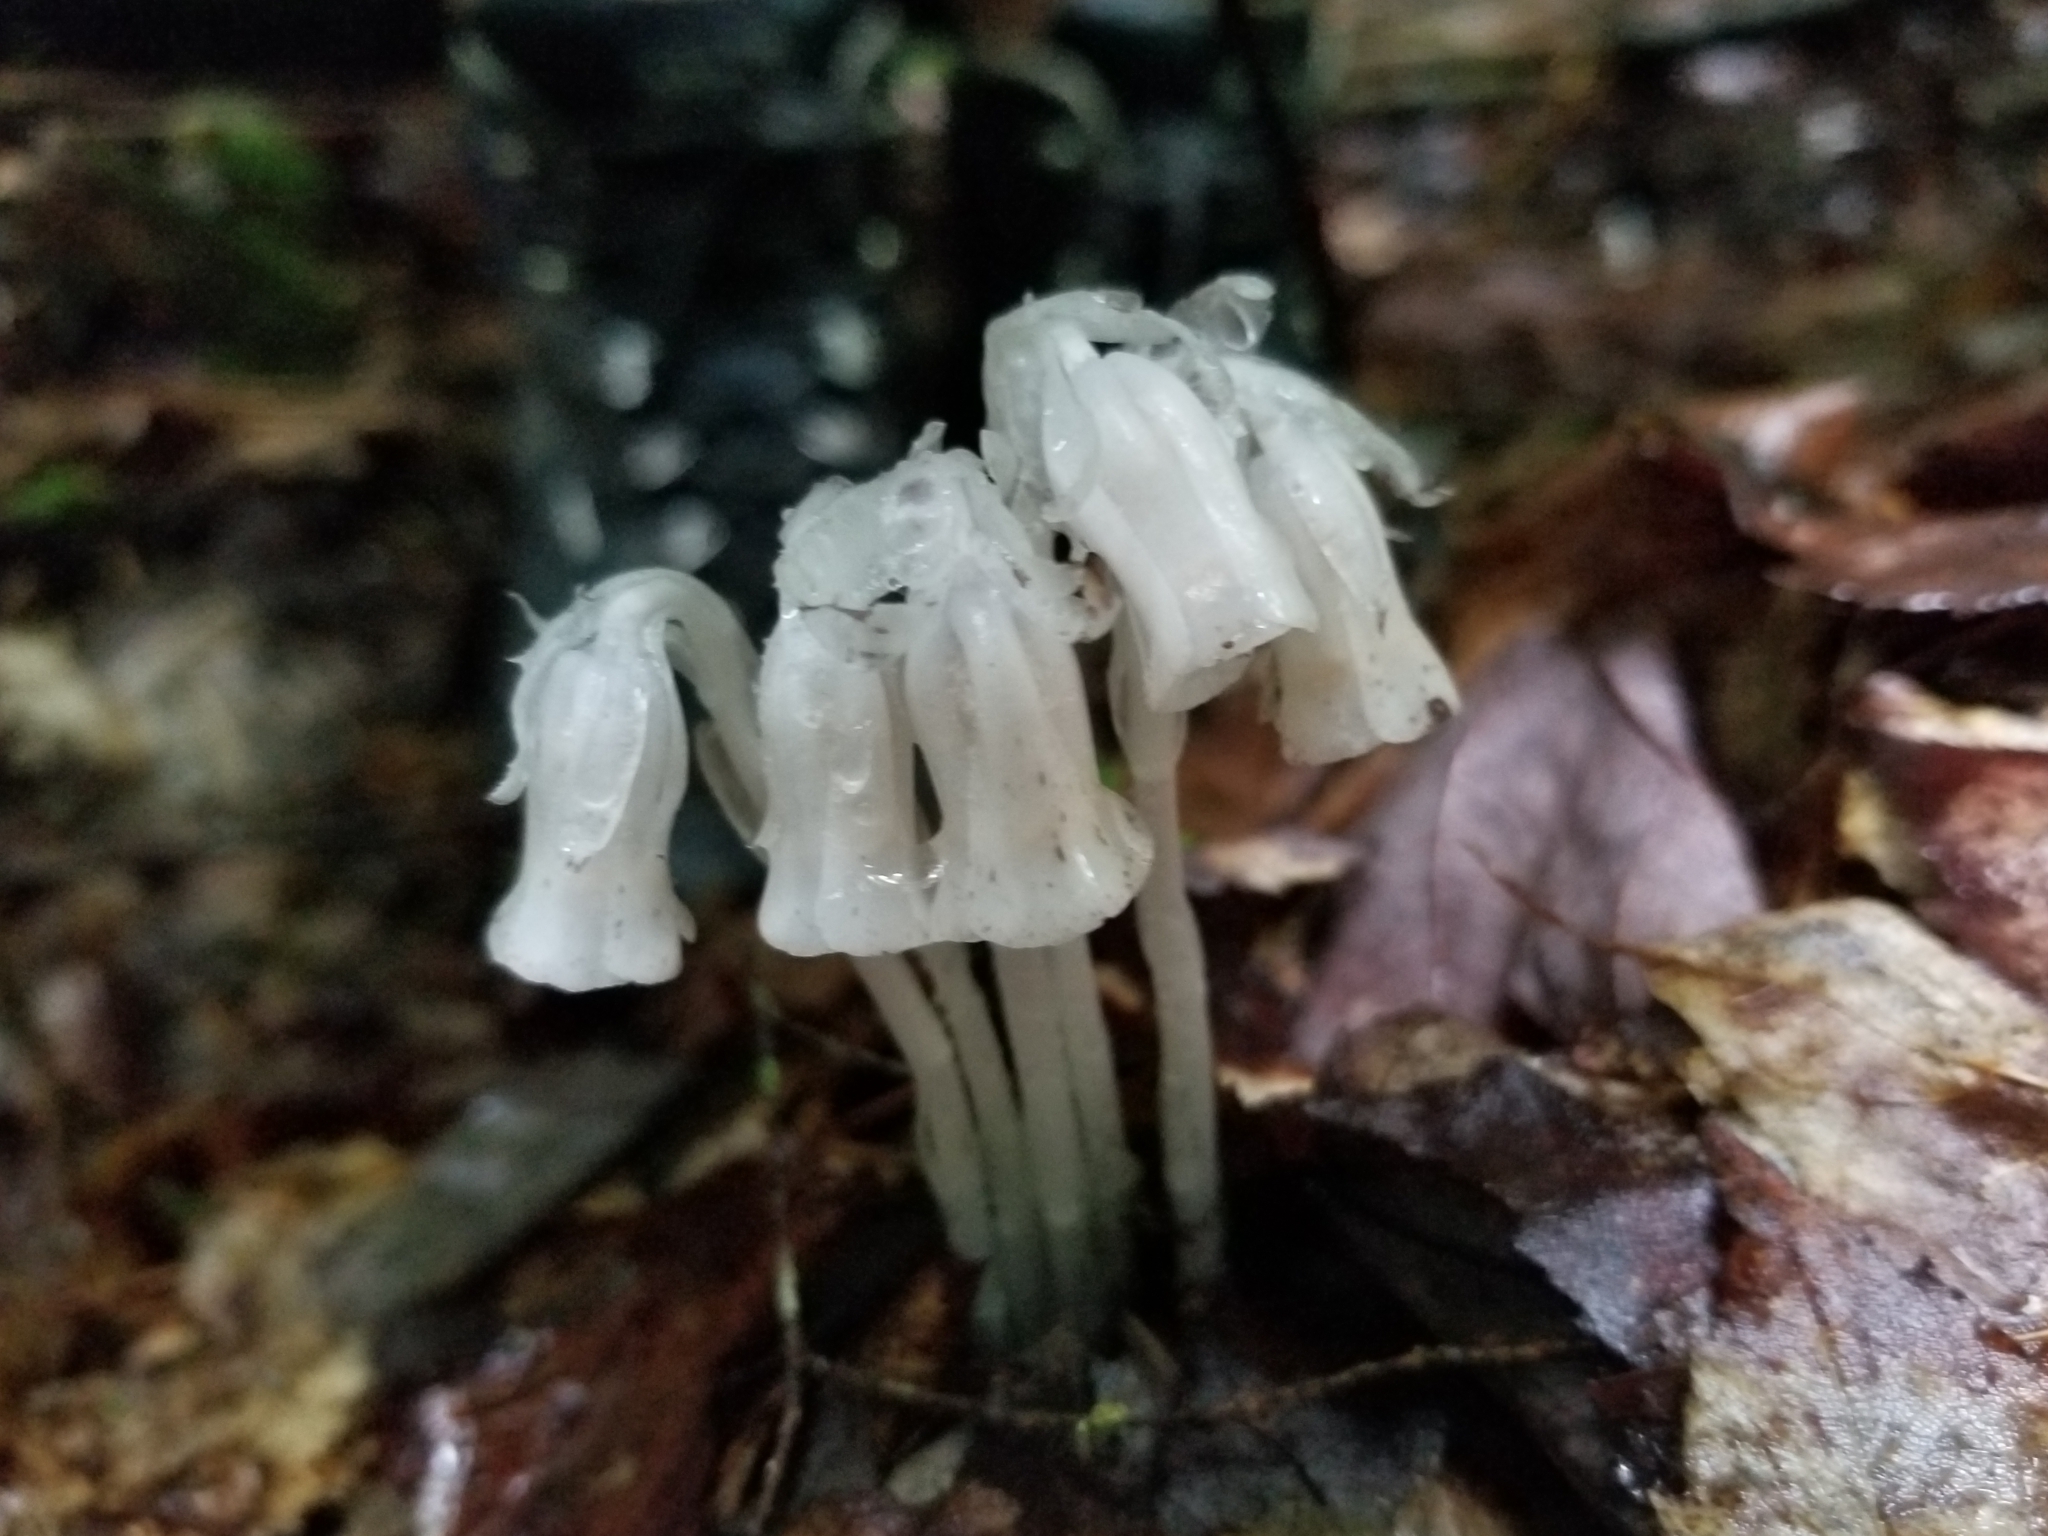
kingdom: Plantae
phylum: Tracheophyta
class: Magnoliopsida
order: Ericales
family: Ericaceae
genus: Monotropa
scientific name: Monotropa uniflora
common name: Convulsion root
